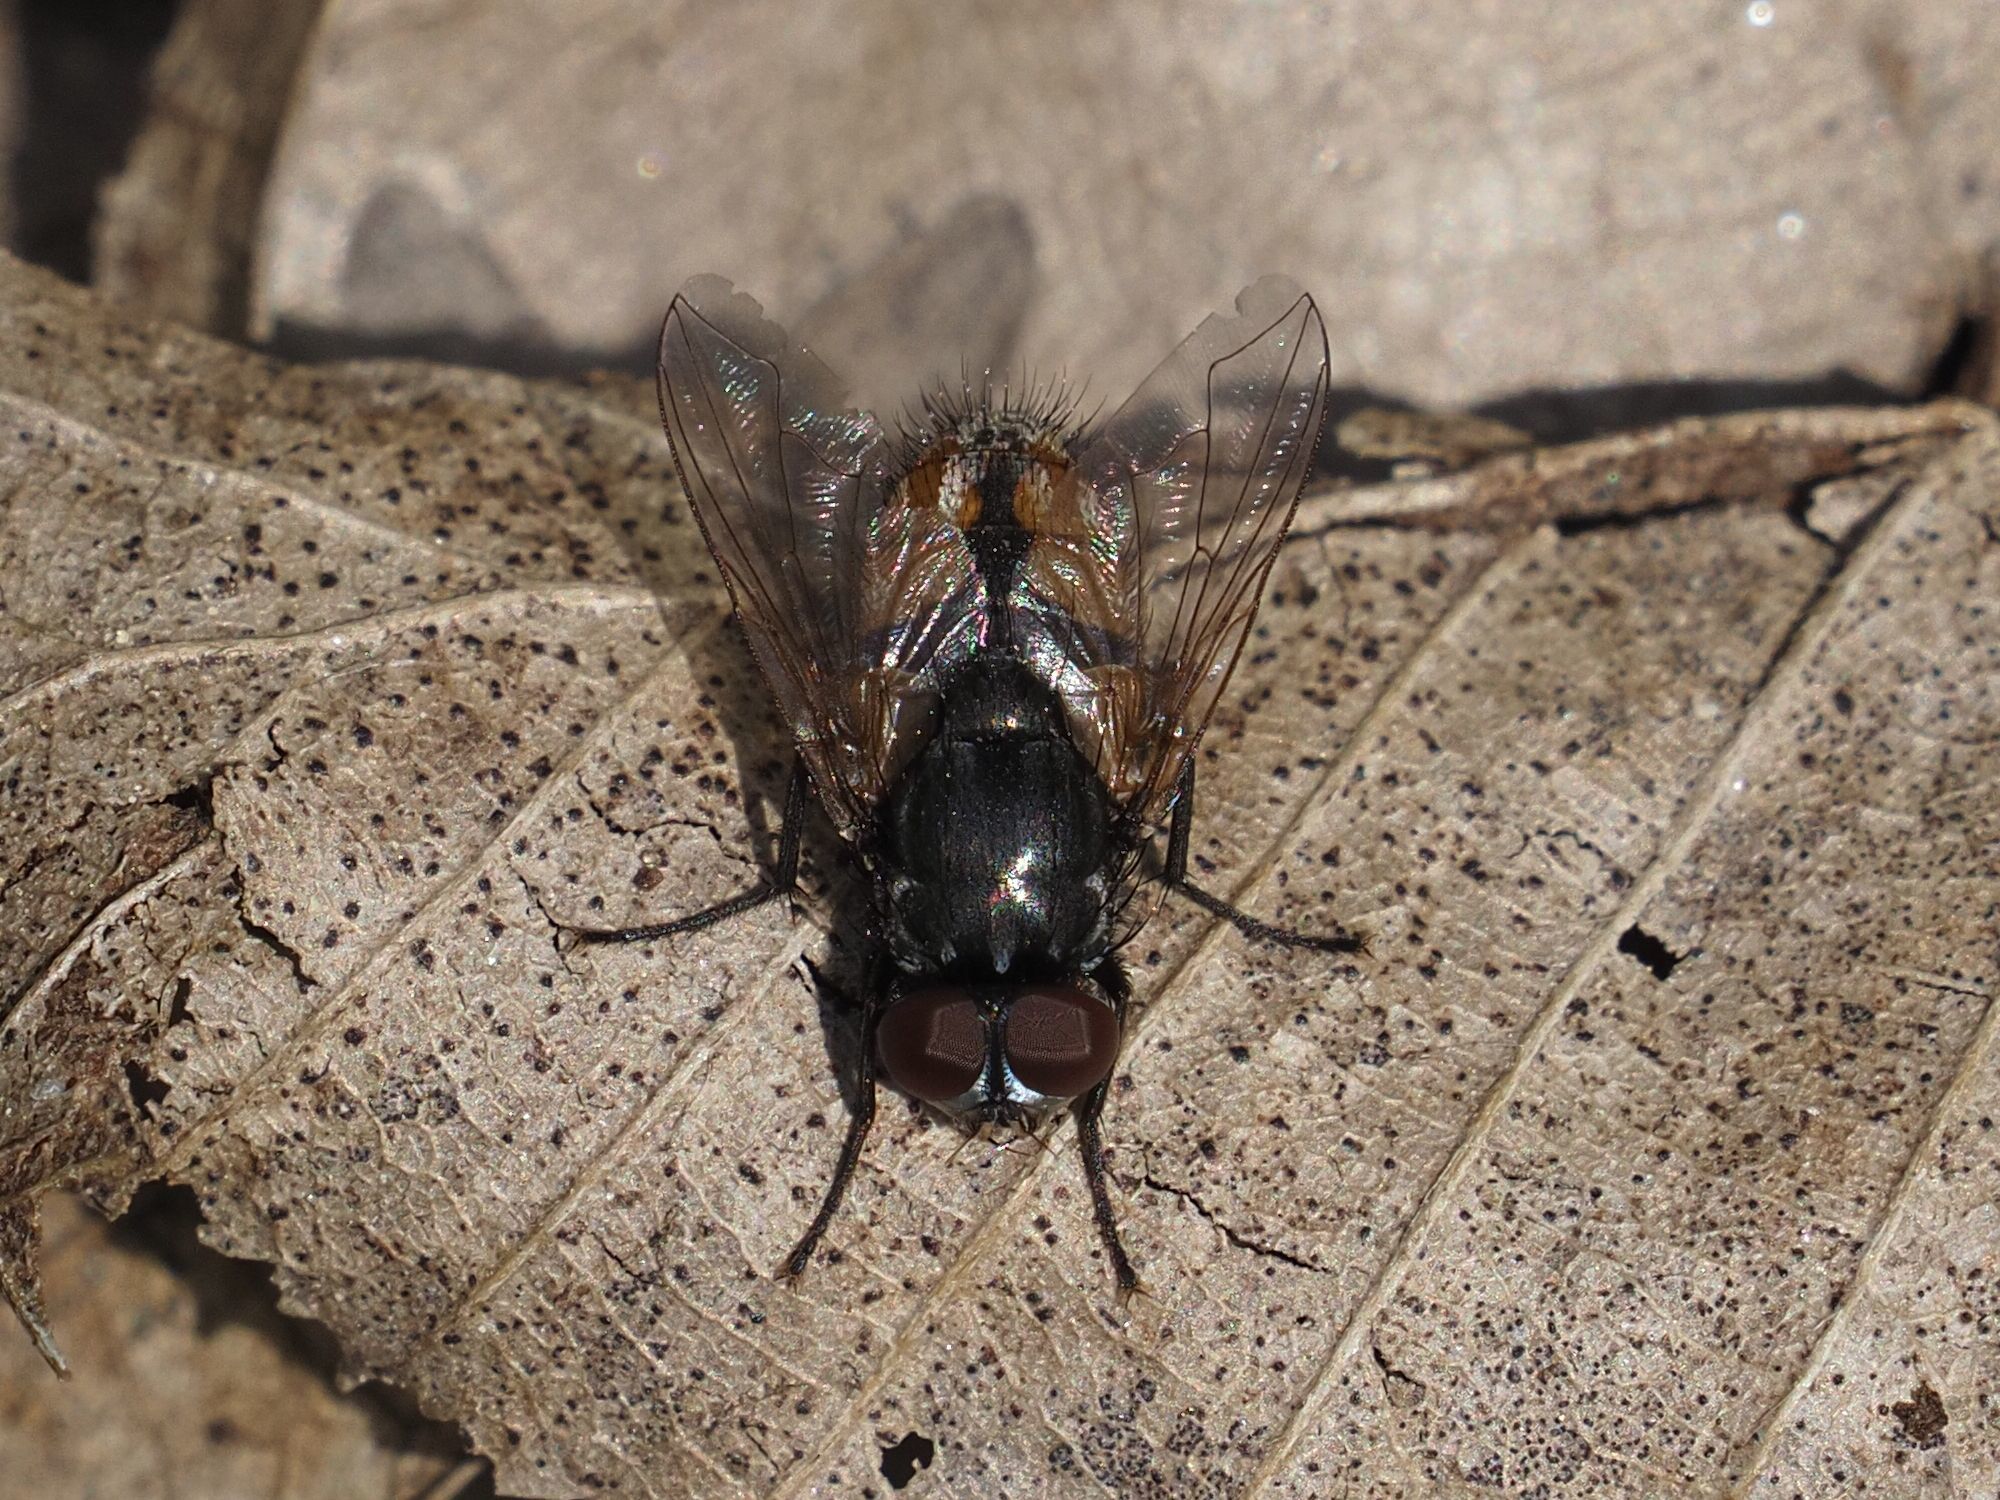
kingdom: Animalia
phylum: Arthropoda
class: Insecta
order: Diptera
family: Muscidae
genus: Musca
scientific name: Musca autumnalis
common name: Face fly
